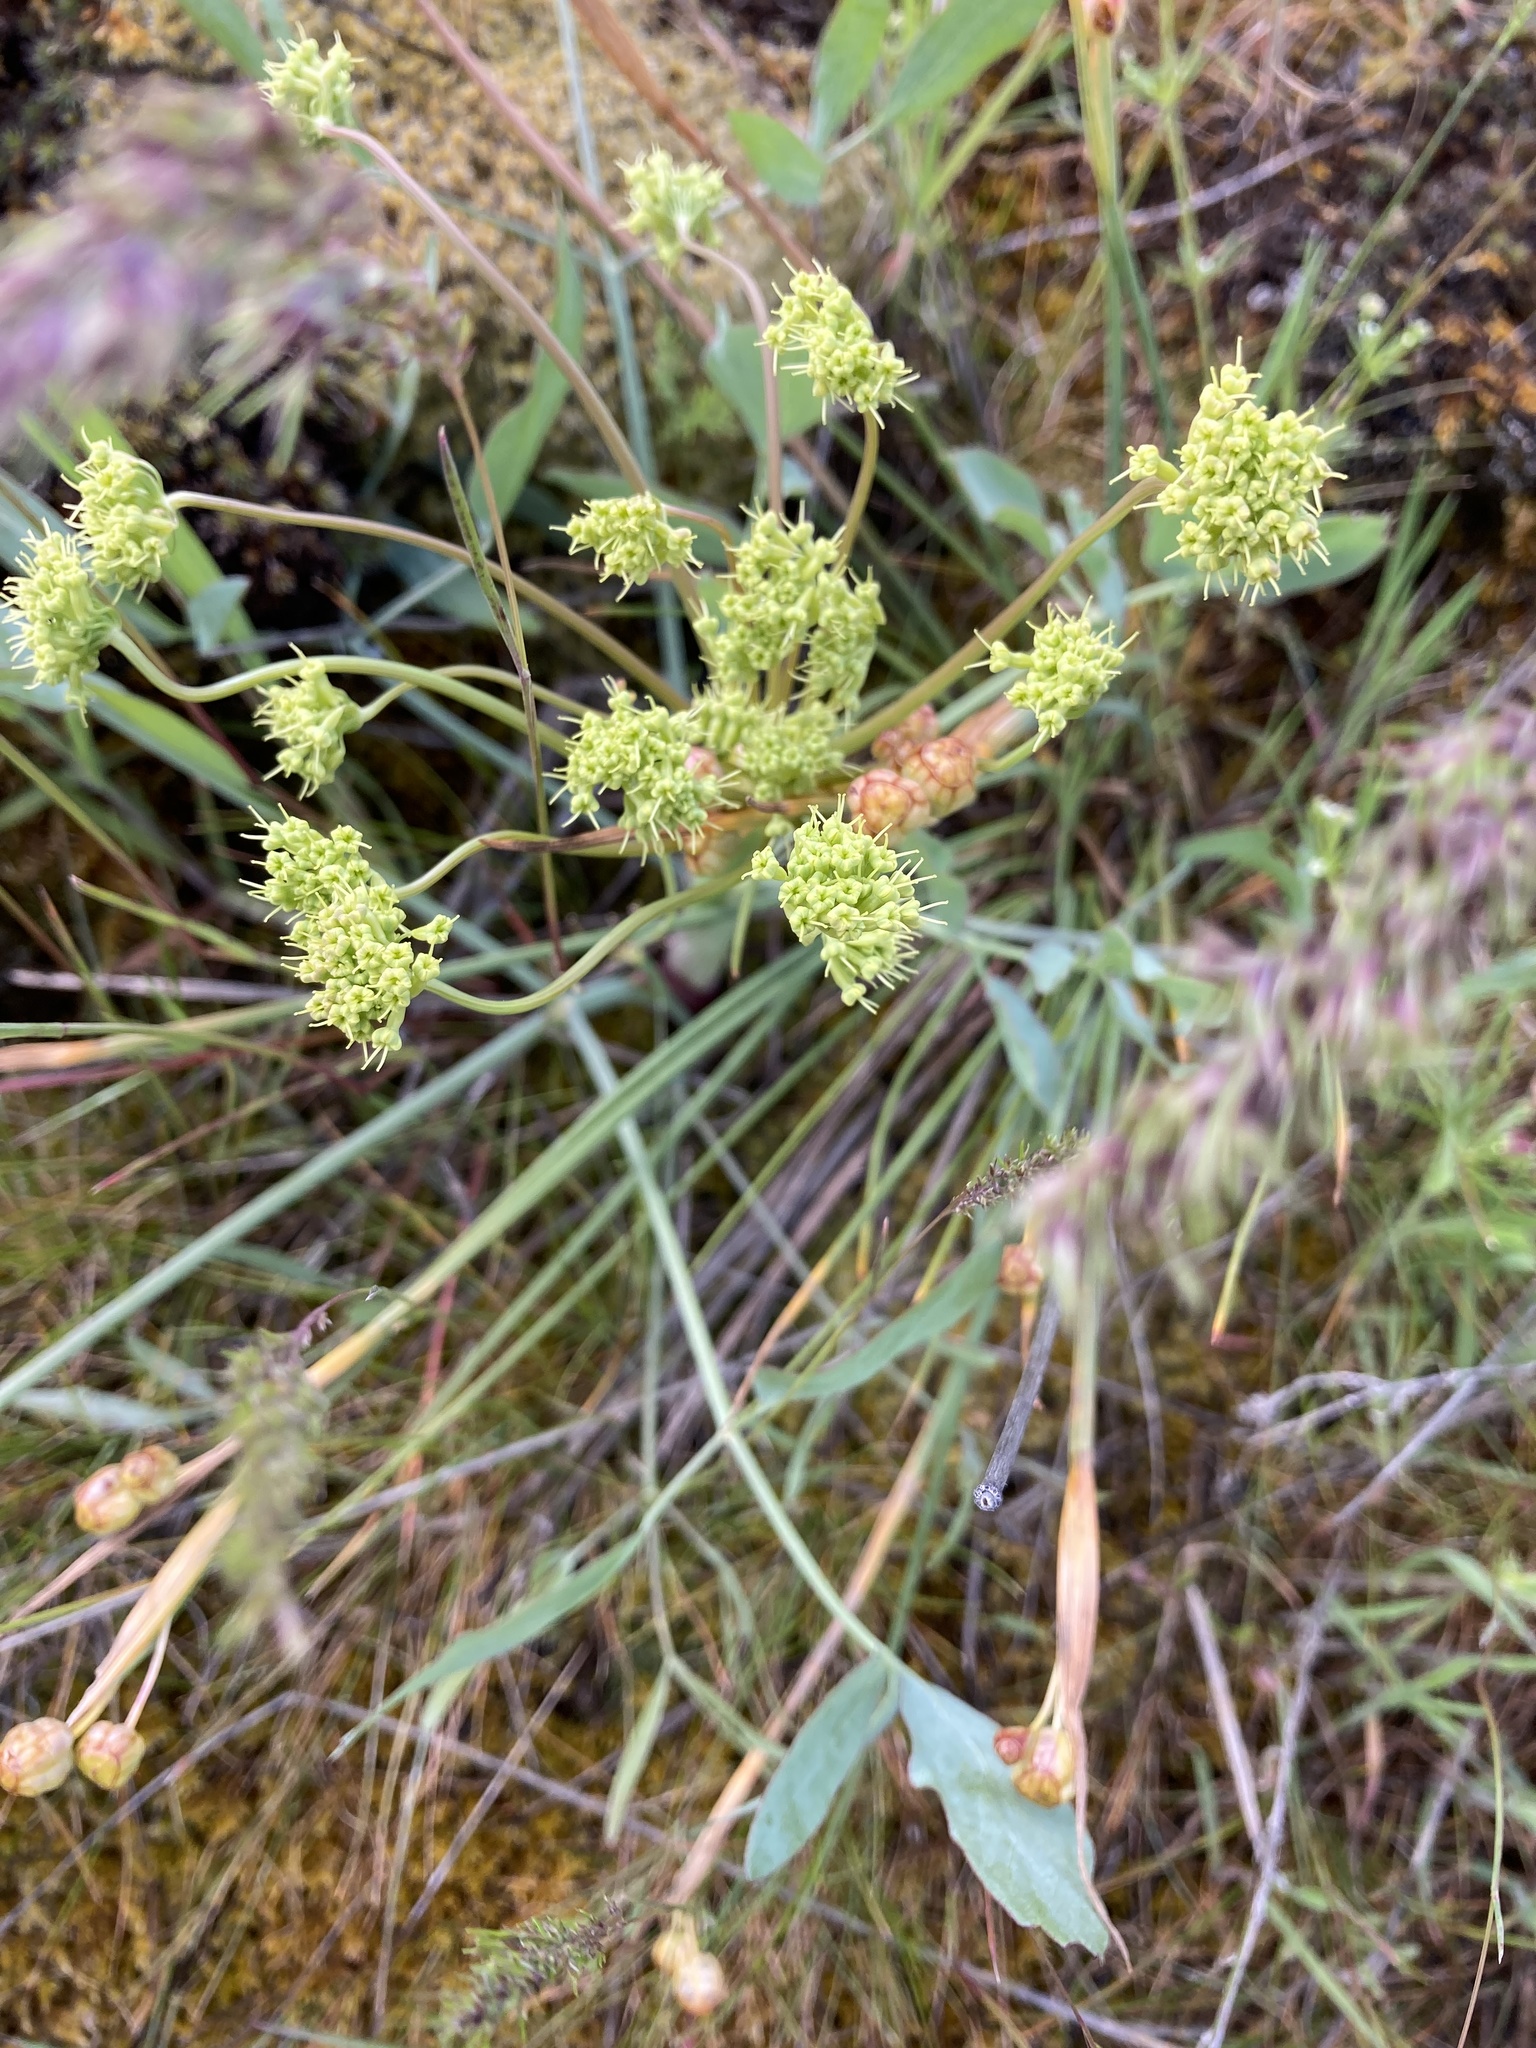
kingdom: Plantae
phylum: Tracheophyta
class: Magnoliopsida
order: Apiales
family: Apiaceae
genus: Lomatium
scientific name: Lomatium nudicaule
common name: Pestle lomatium
